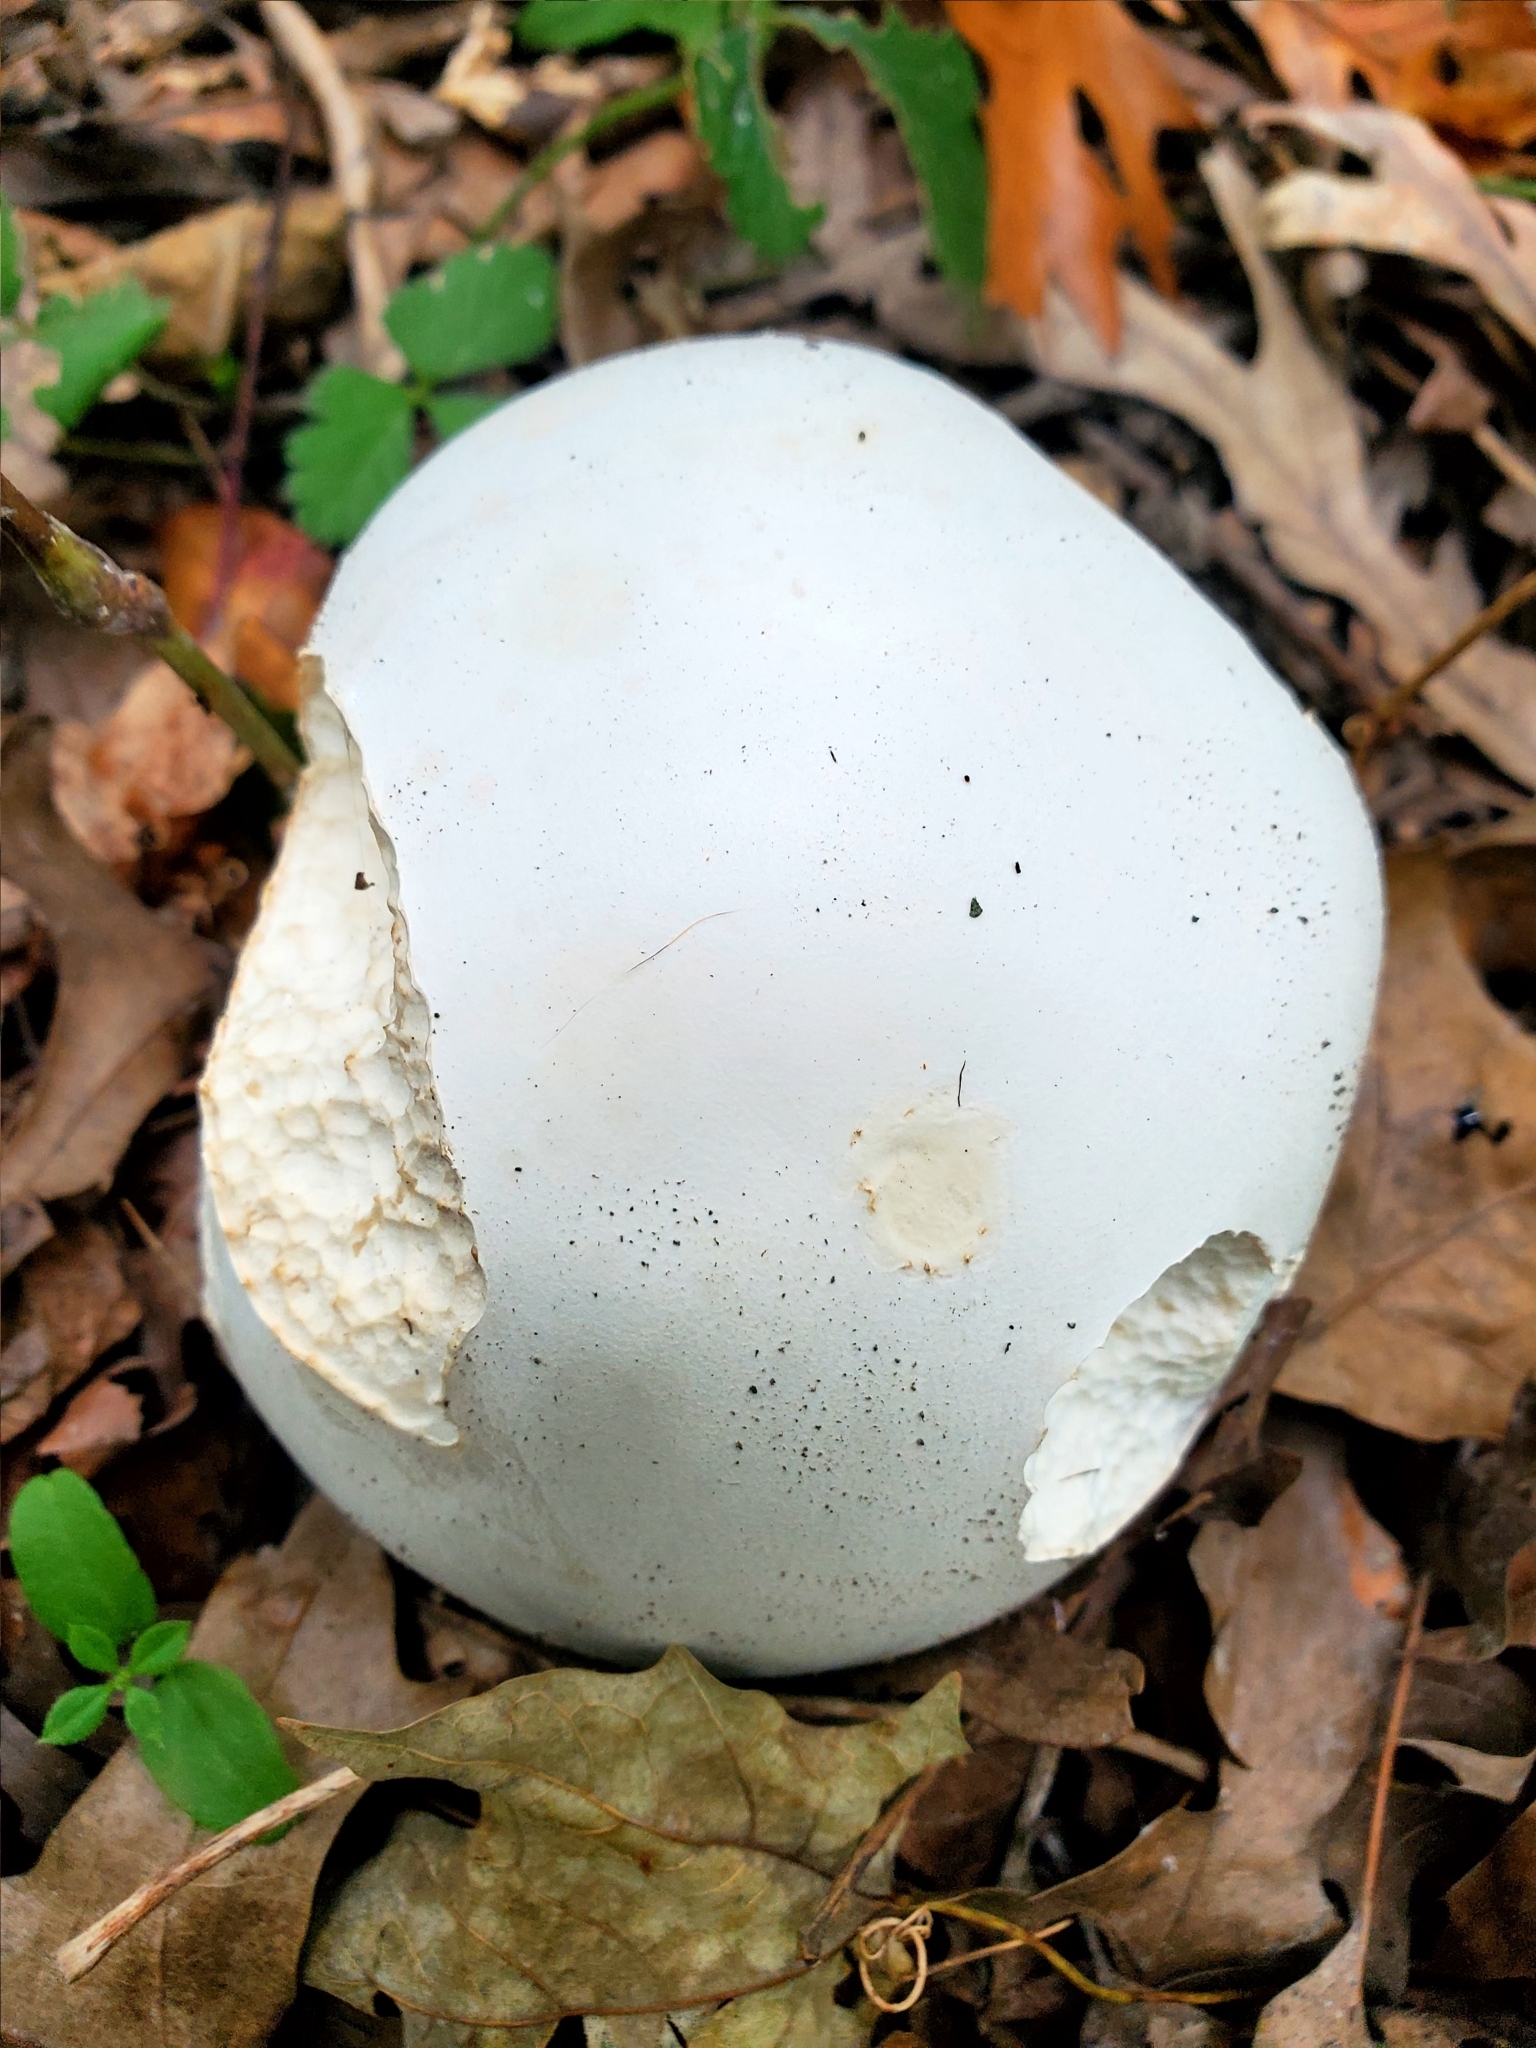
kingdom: Fungi
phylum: Basidiomycota
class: Agaricomycetes
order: Agaricales
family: Lycoperdaceae
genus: Calvatia
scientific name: Calvatia gigantea
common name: Giant puffball
